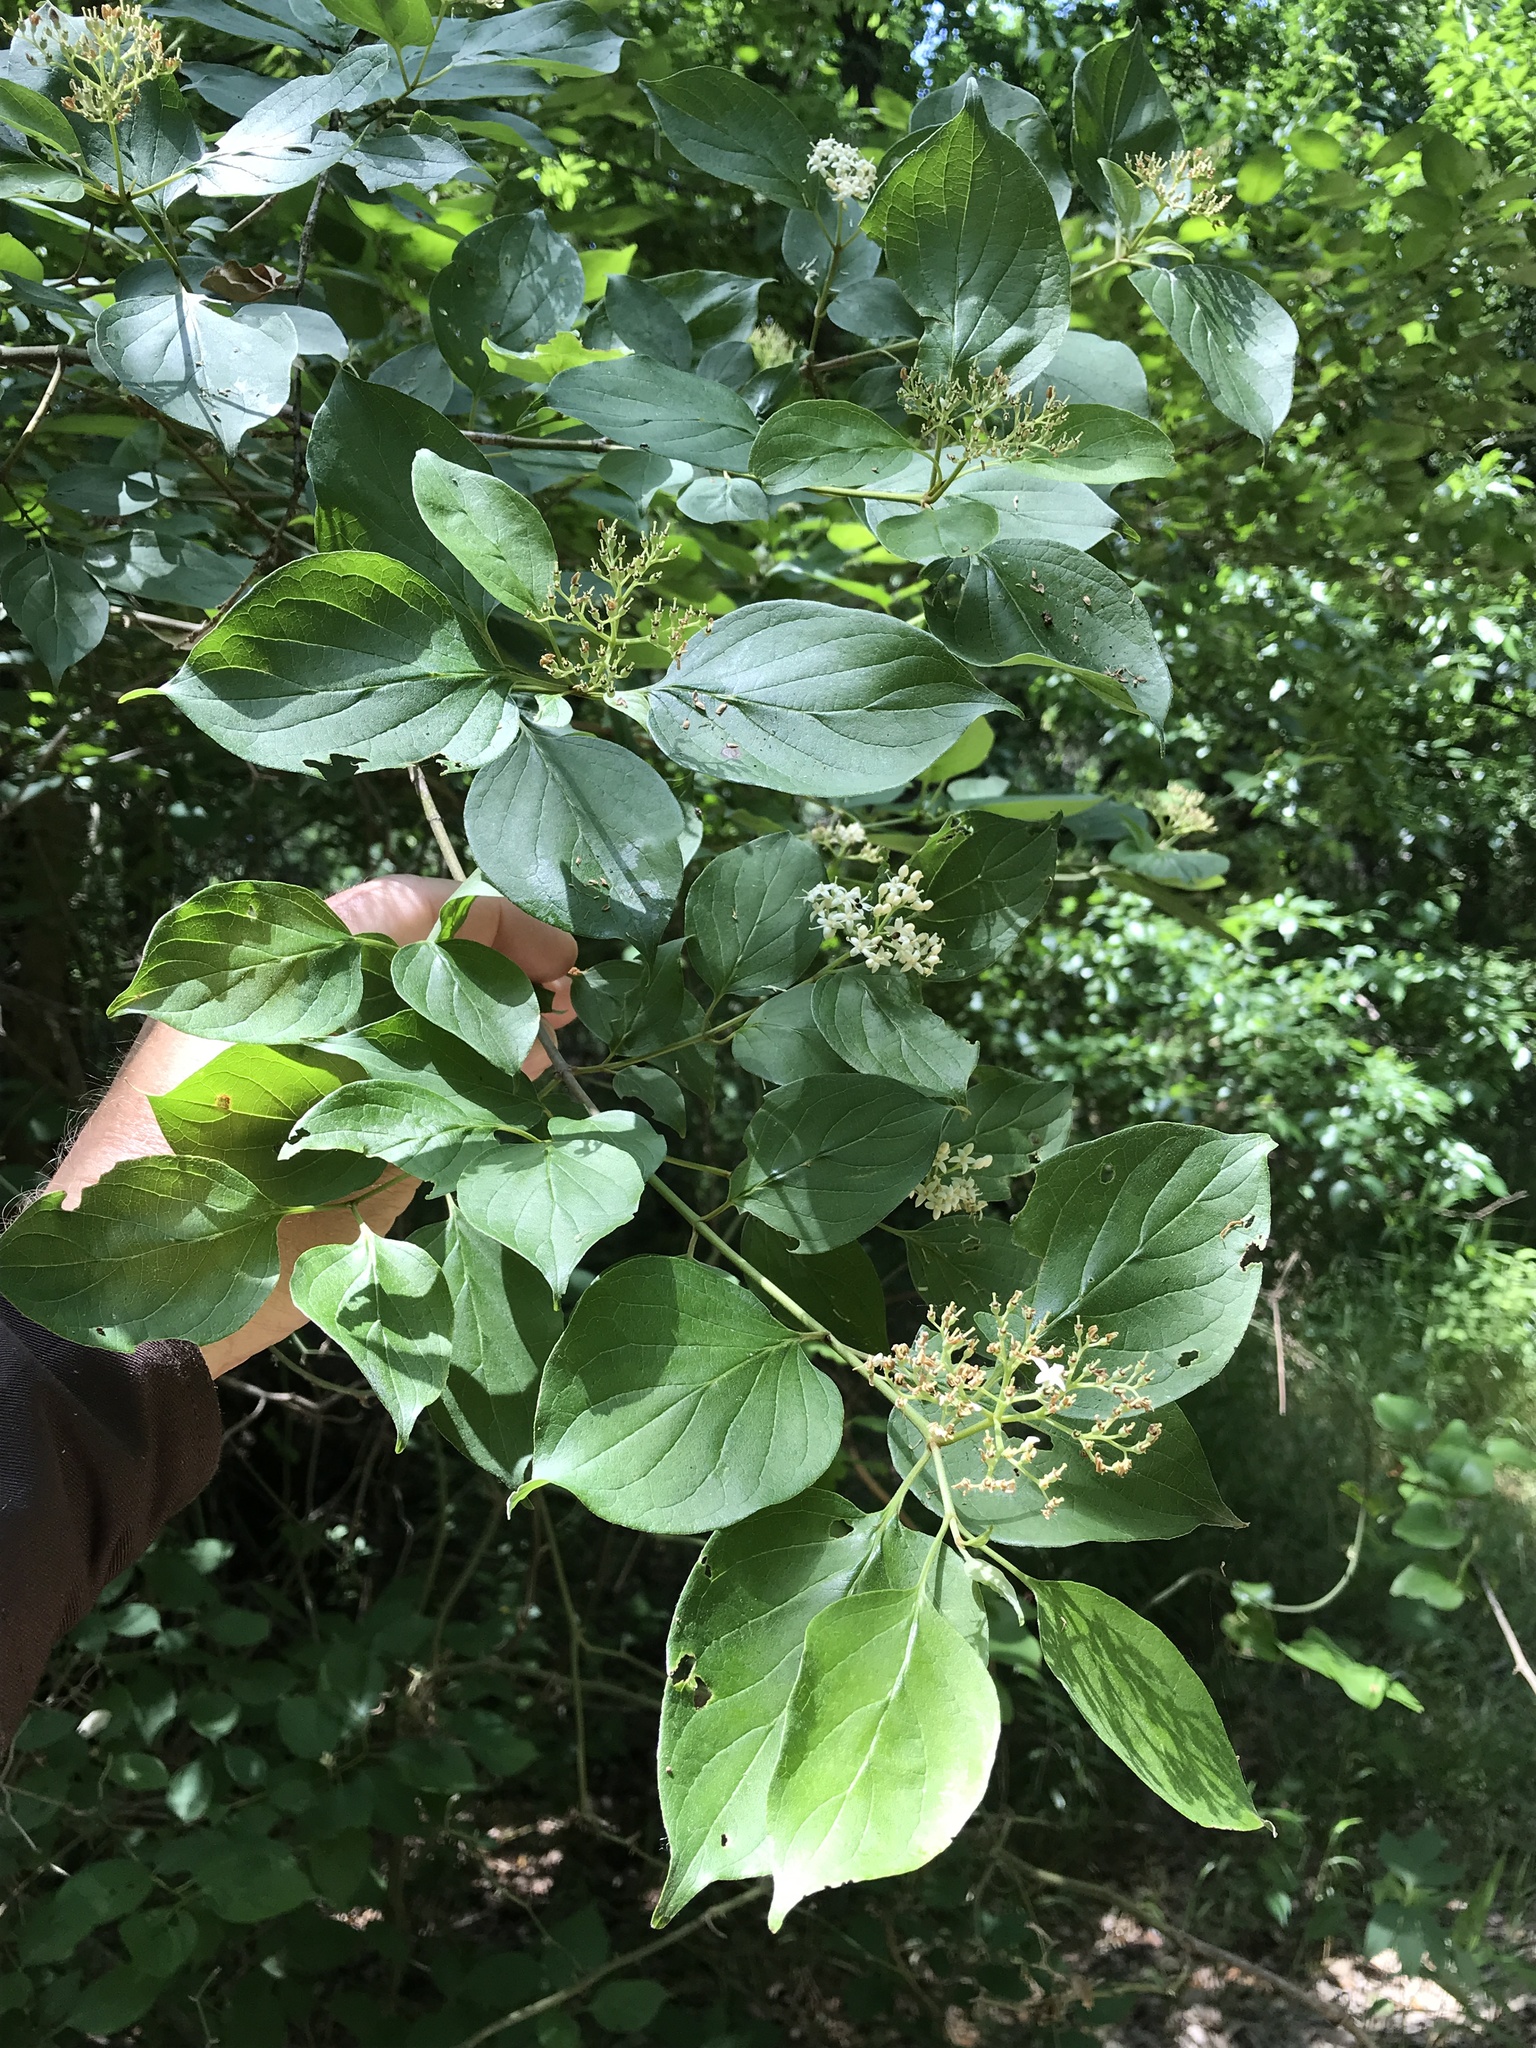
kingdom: Plantae
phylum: Tracheophyta
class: Magnoliopsida
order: Cornales
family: Cornaceae
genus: Cornus
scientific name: Cornus drummondii
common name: Rough-leaf dogwood
